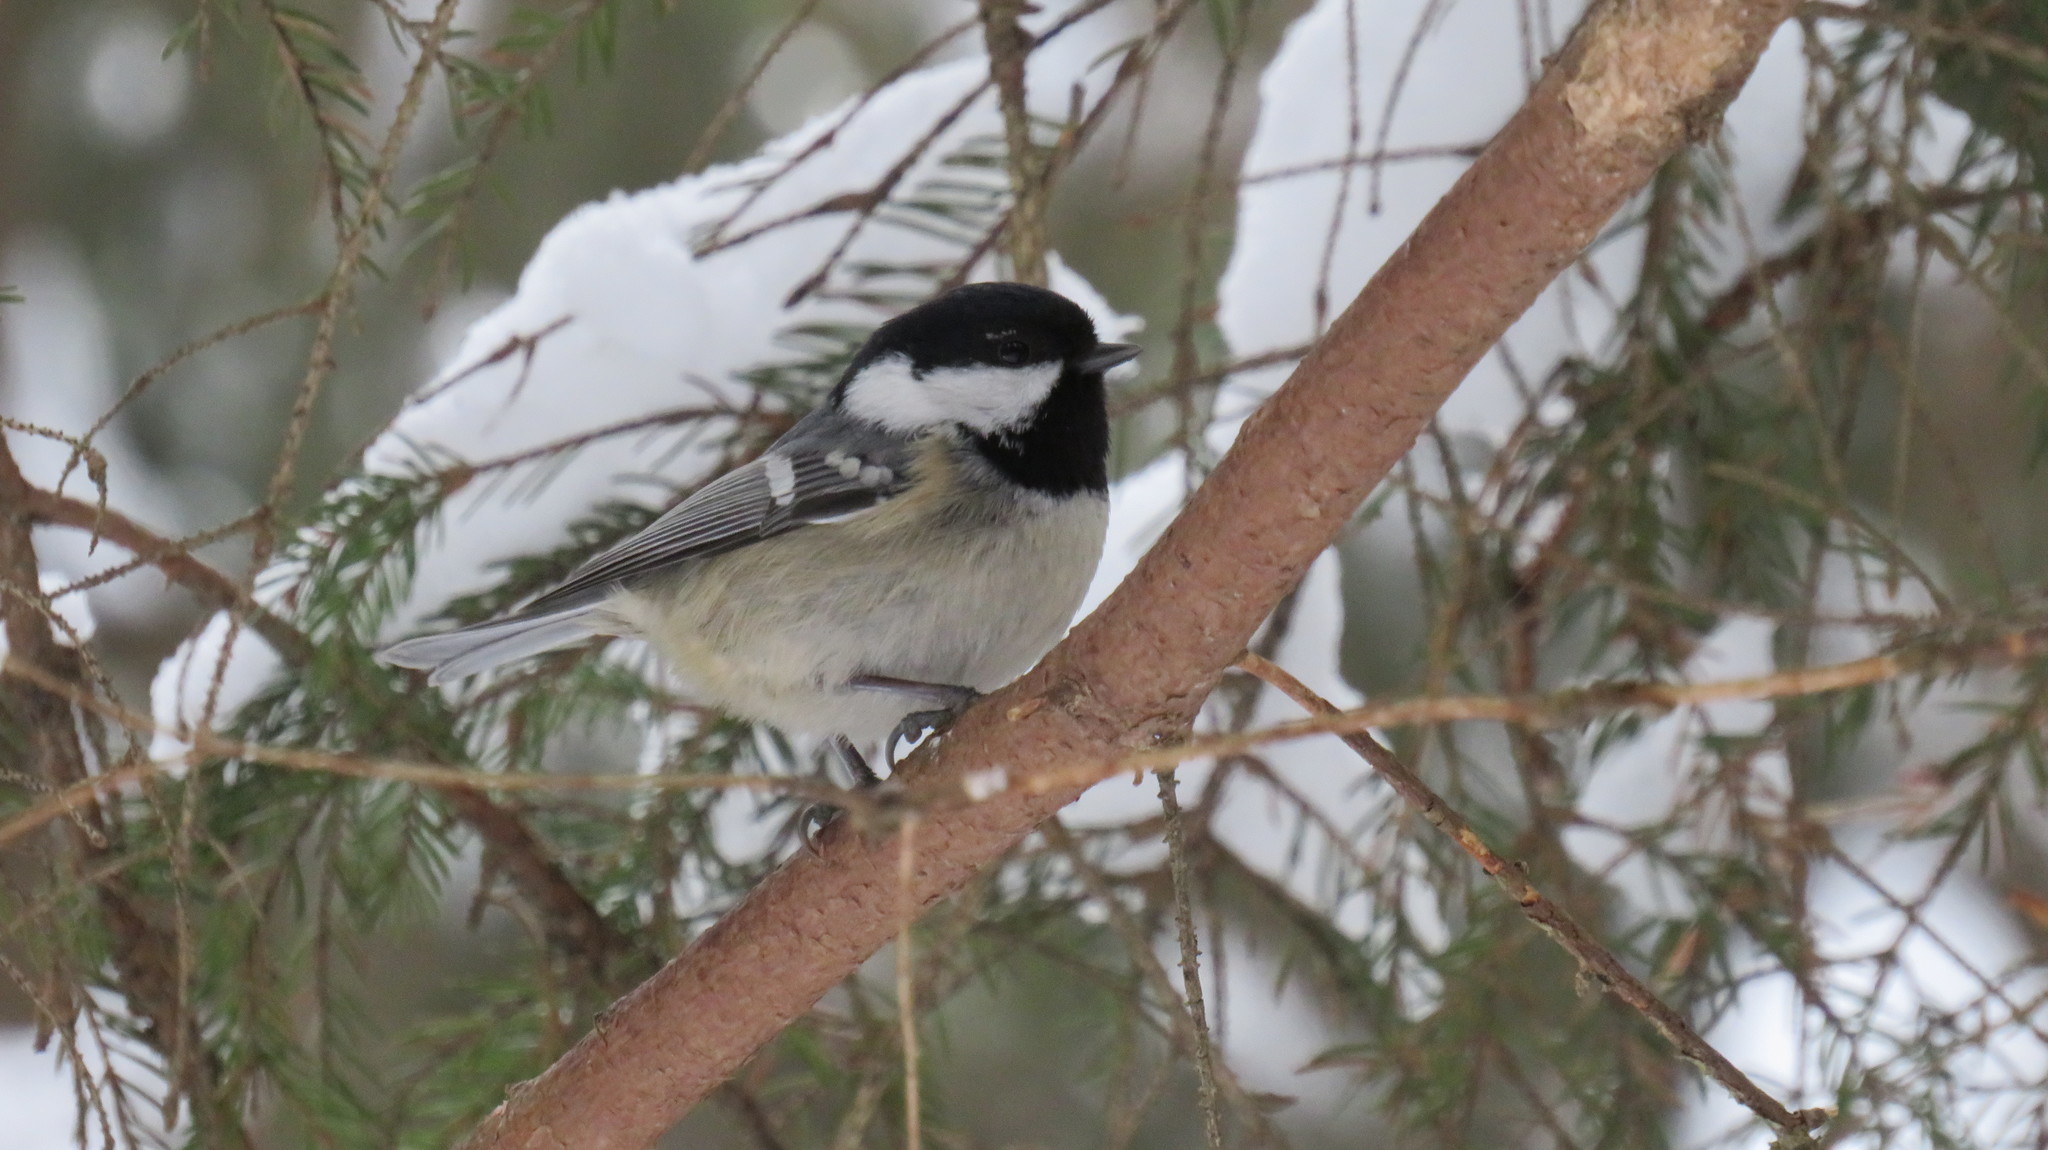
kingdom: Animalia
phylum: Chordata
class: Aves
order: Passeriformes
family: Paridae
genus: Periparus
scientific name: Periparus ater
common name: Coal tit
